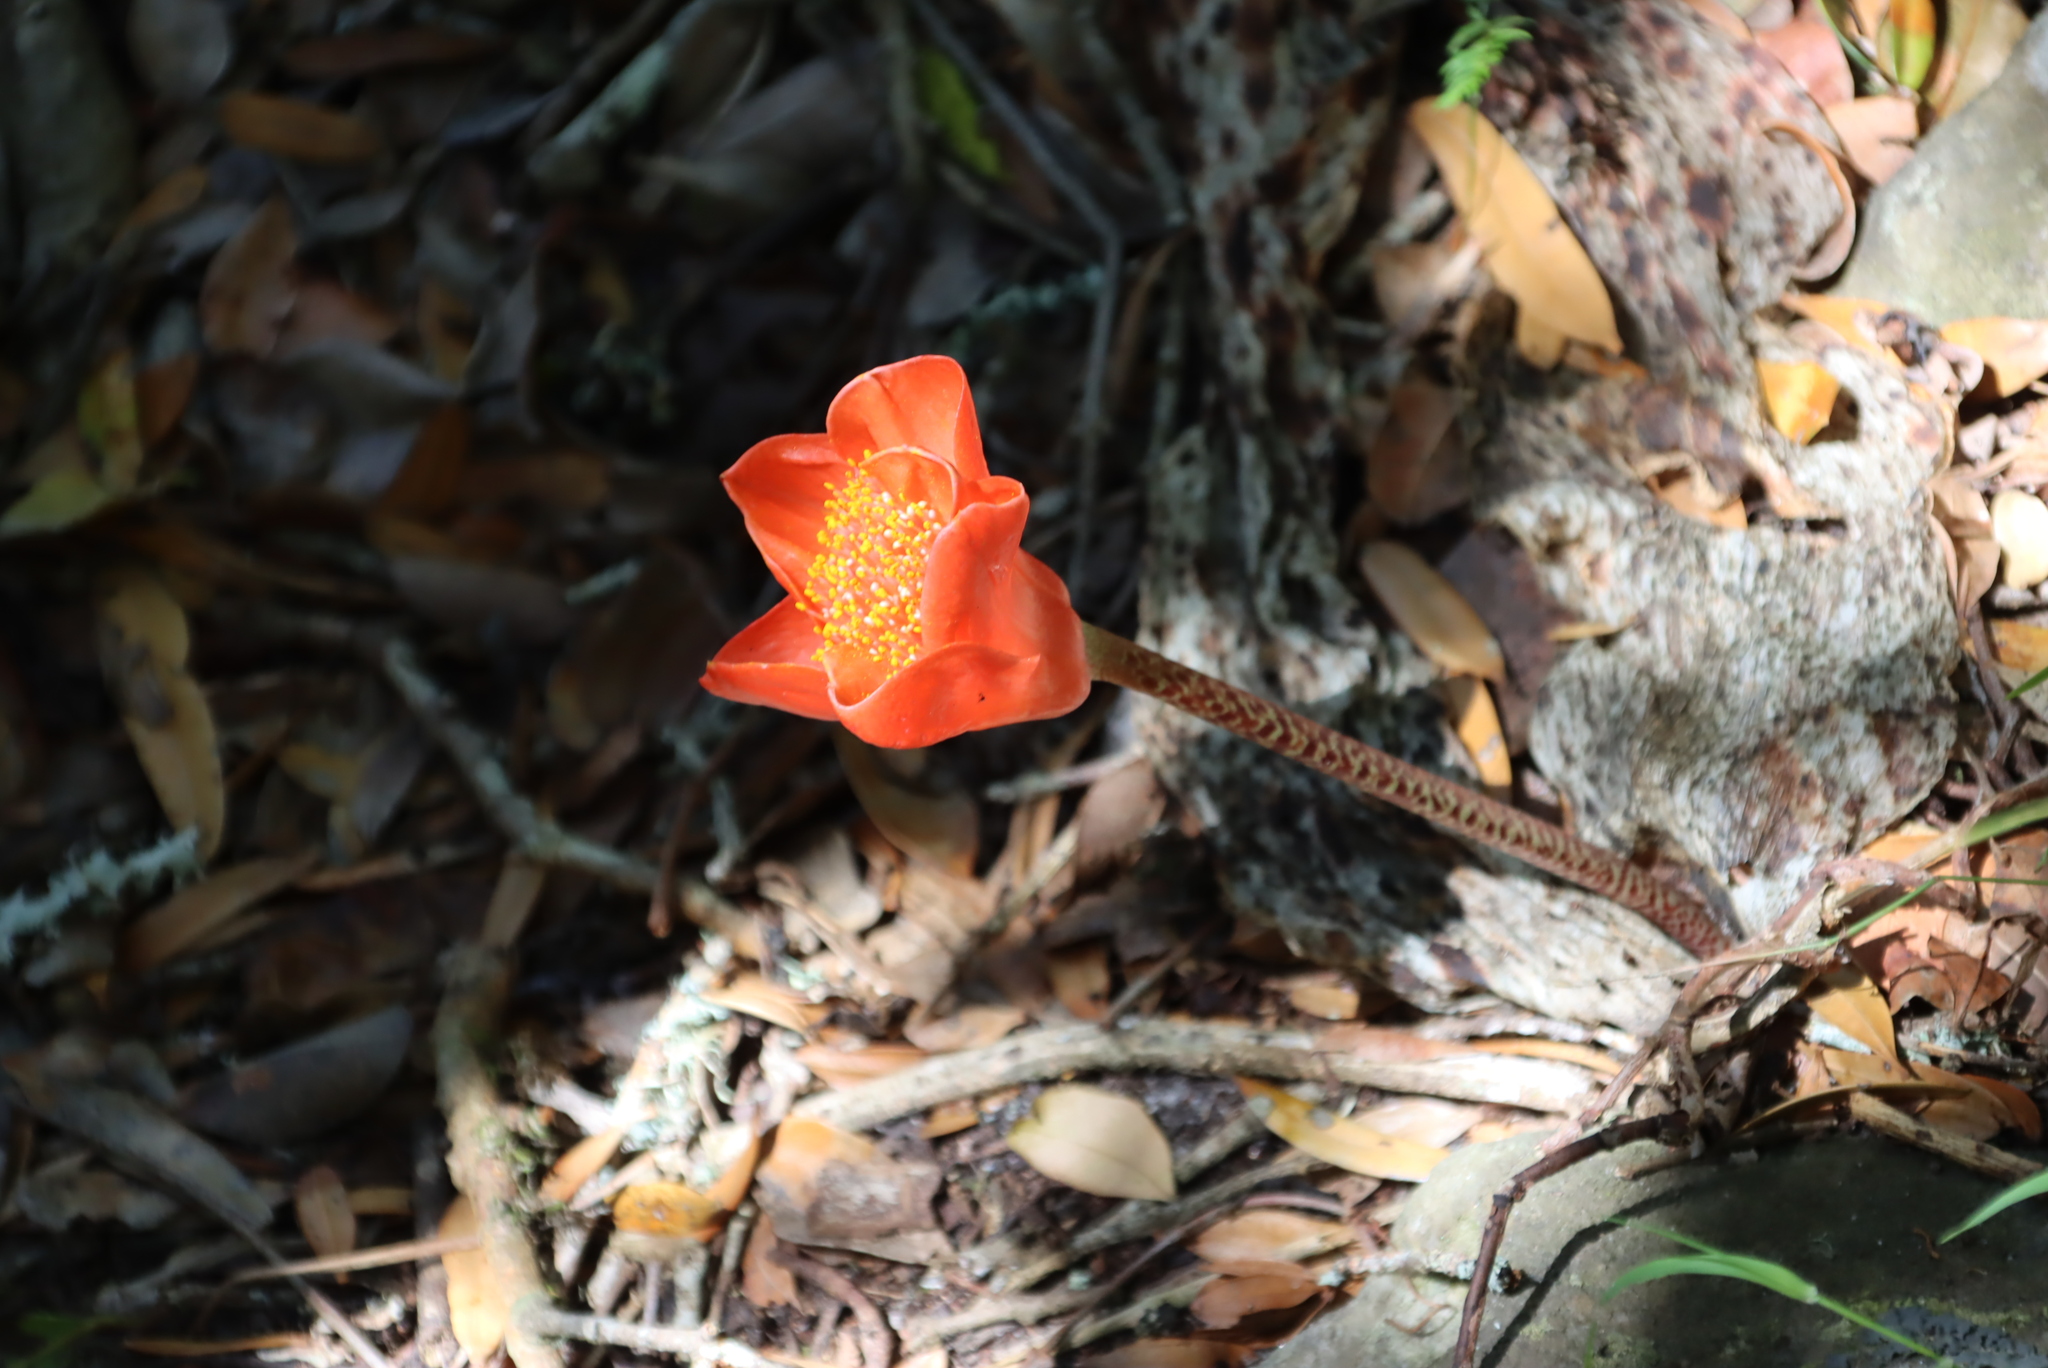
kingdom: Plantae
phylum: Tracheophyta
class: Liliopsida
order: Asparagales
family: Amaryllidaceae
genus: Haemanthus
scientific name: Haemanthus coccineus
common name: Cape-tulip
